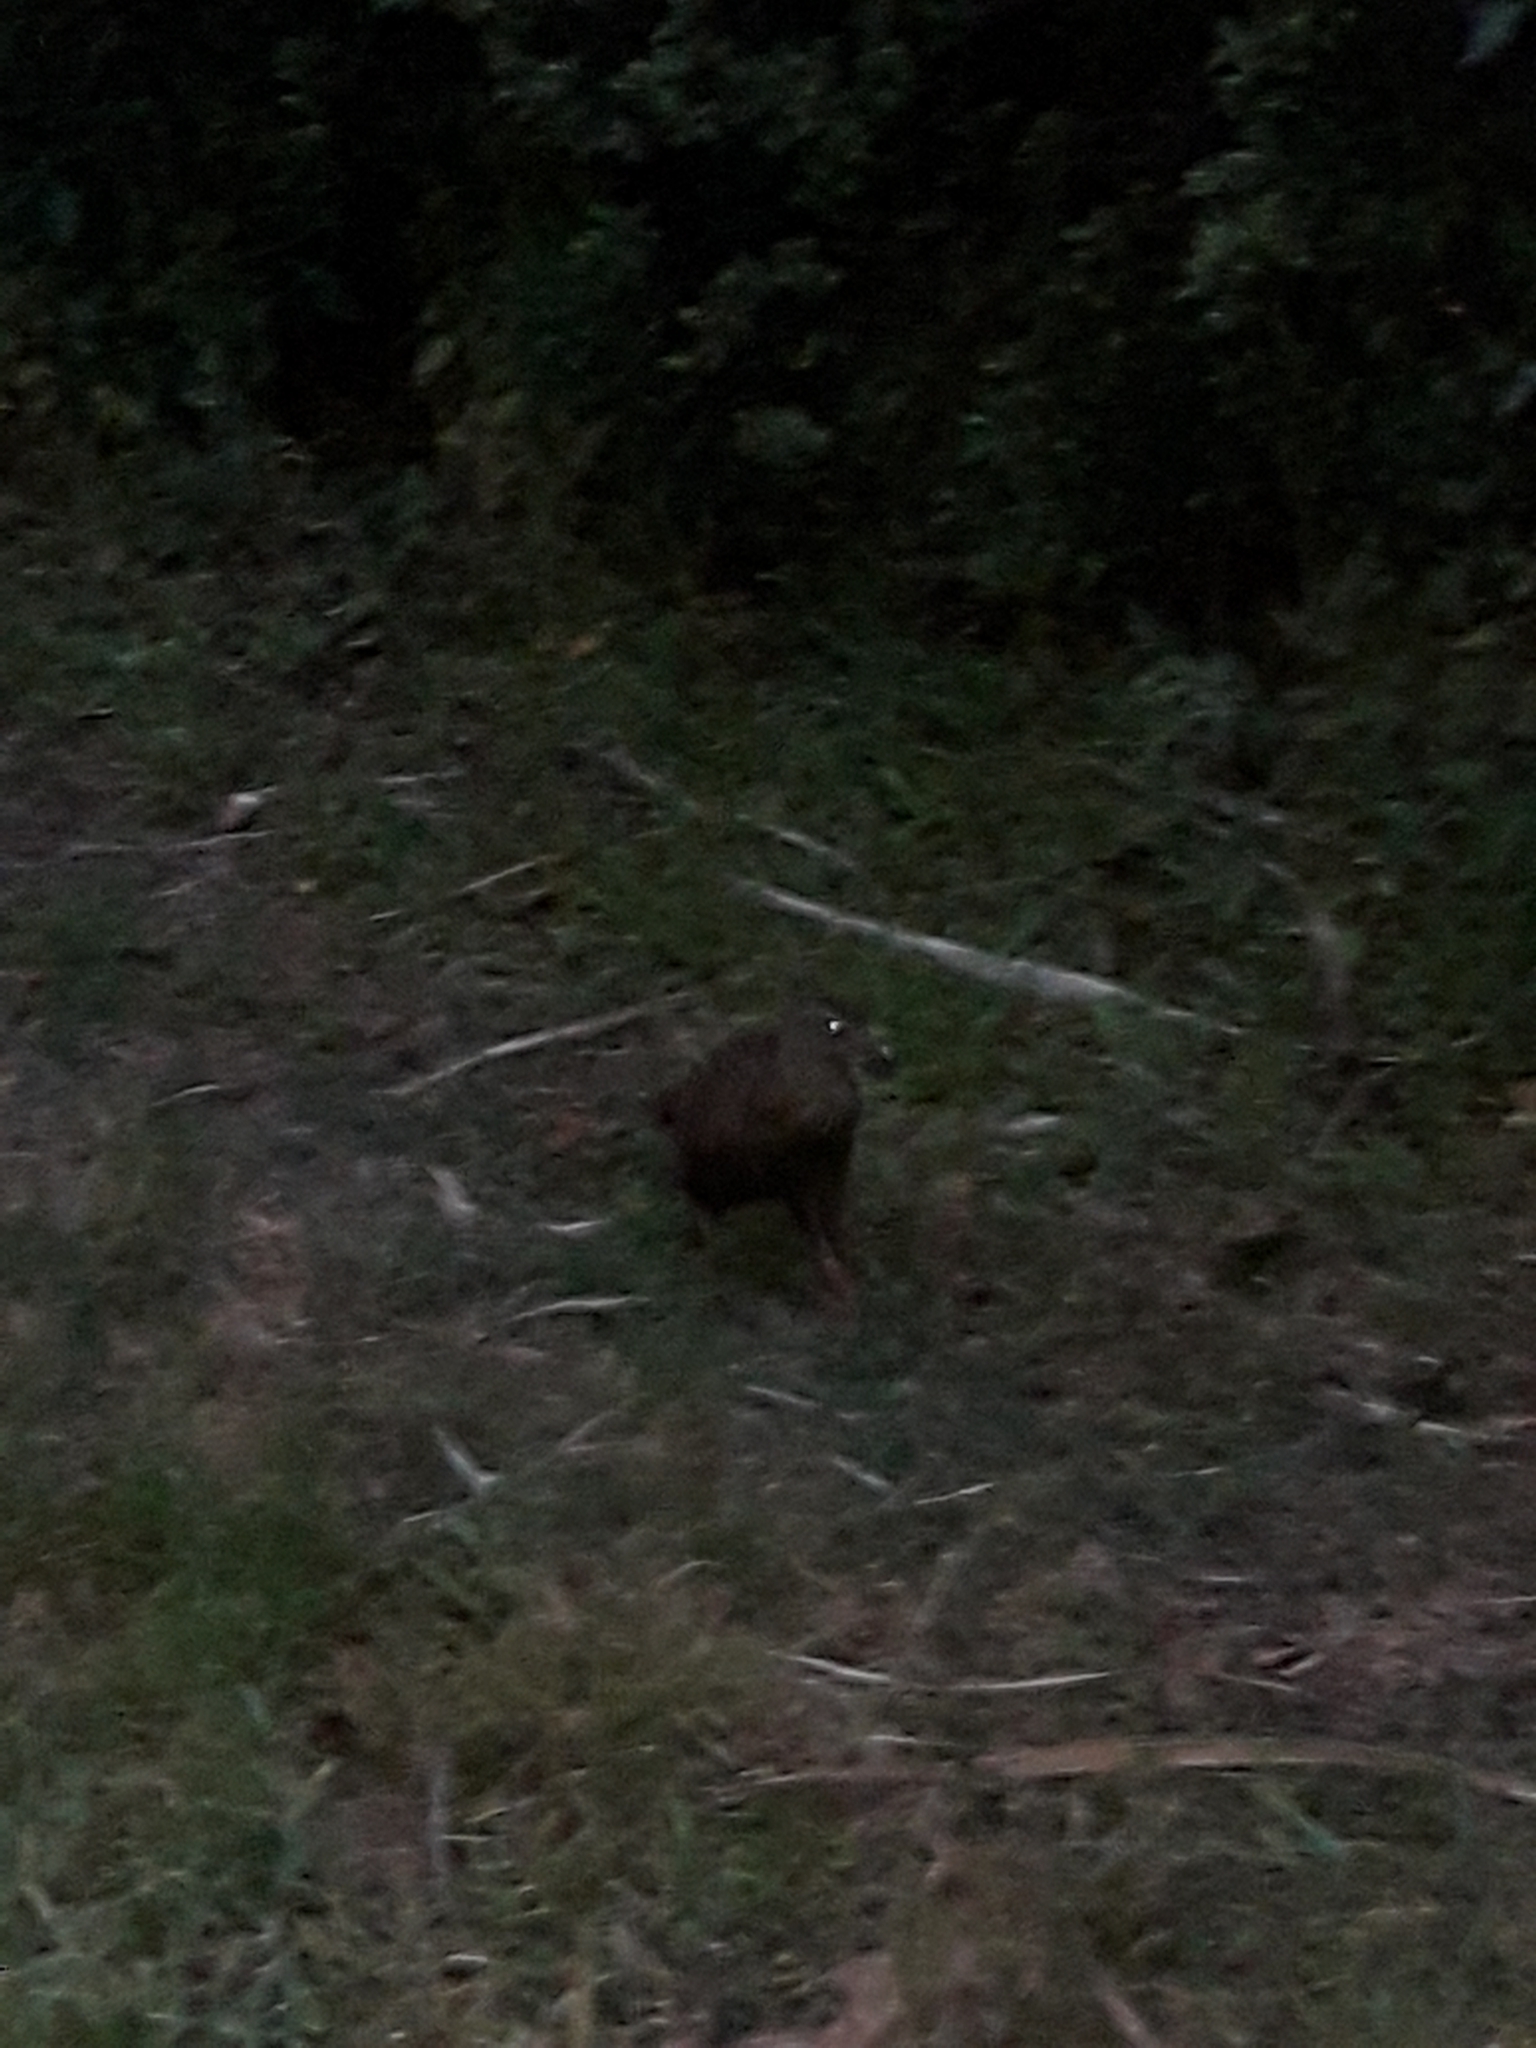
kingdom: Animalia
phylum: Chordata
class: Aves
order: Gruiformes
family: Rallidae
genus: Gallirallus
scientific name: Gallirallus australis
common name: Weka
